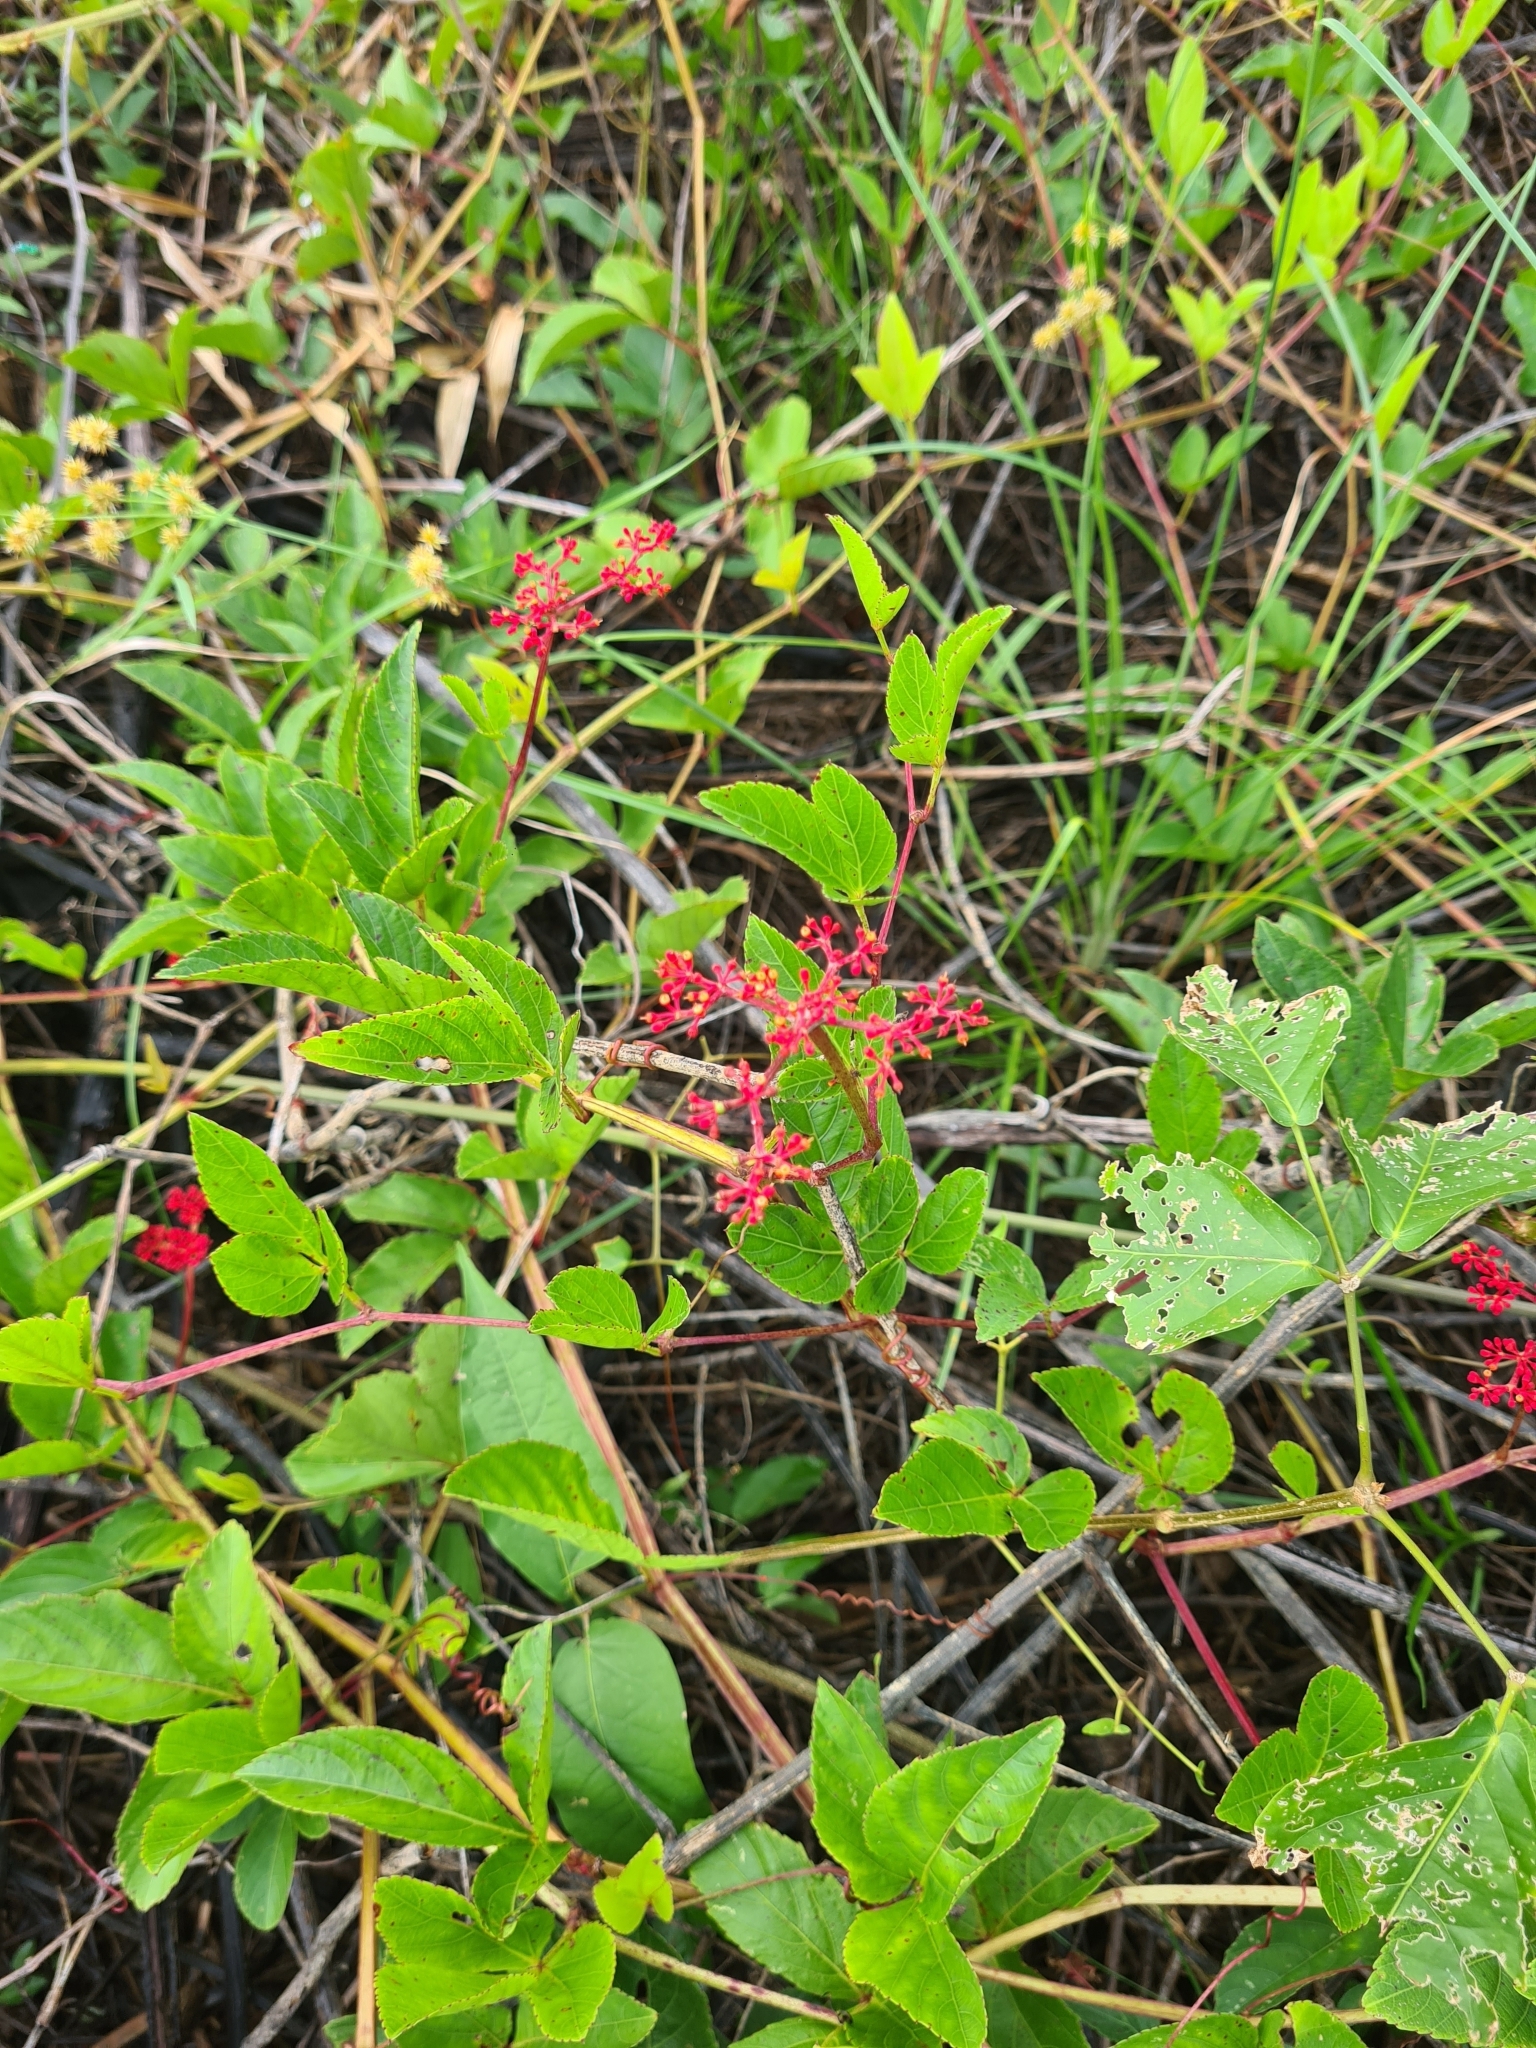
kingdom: Plantae
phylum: Tracheophyta
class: Magnoliopsida
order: Vitales
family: Vitaceae
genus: Cissus
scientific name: Cissus erosa
